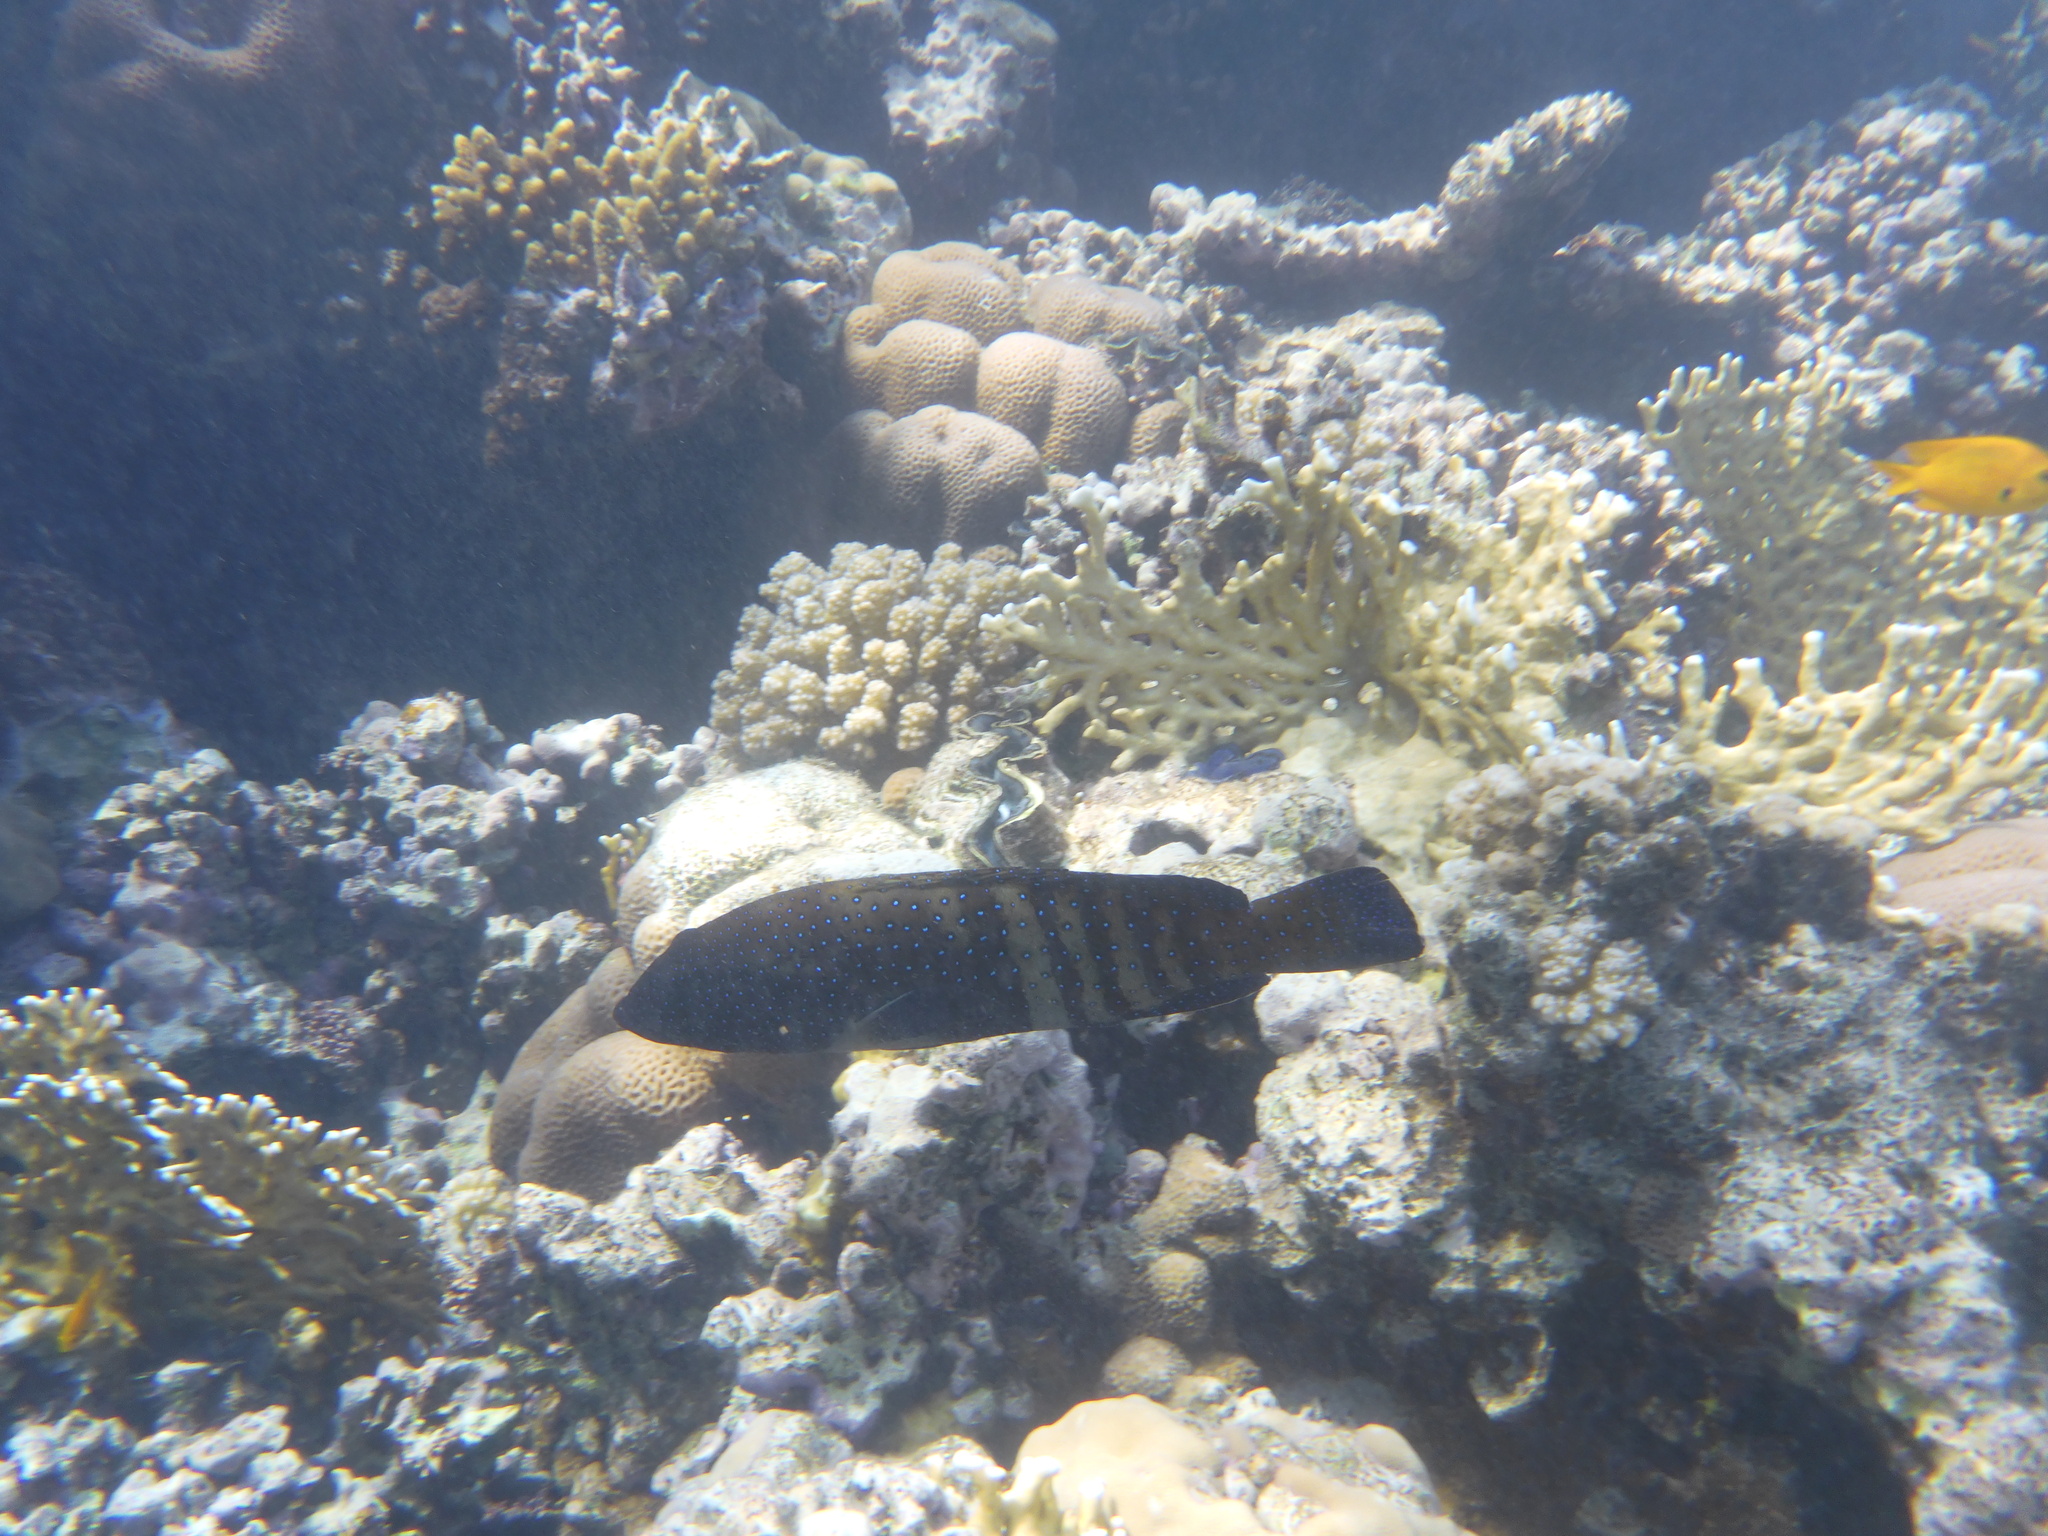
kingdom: Animalia
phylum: Chordata
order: Perciformes
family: Serranidae
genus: Cephalopholis
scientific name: Cephalopholis argus
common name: Peacock grouper
